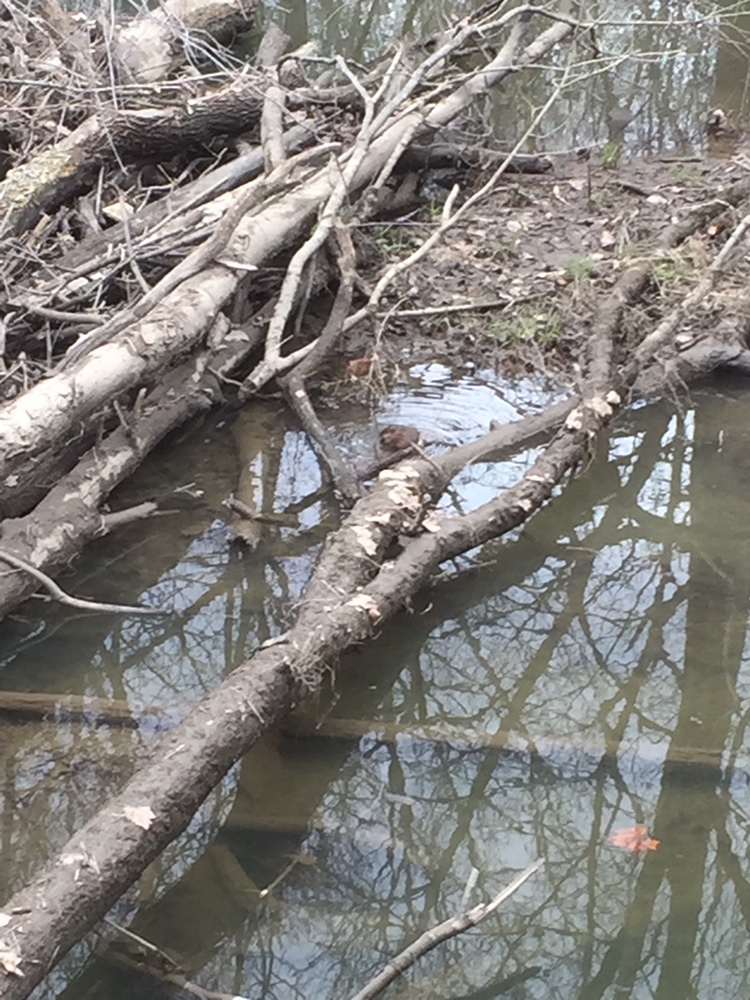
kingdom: Animalia
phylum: Chordata
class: Mammalia
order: Rodentia
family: Cricetidae
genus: Ondatra
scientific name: Ondatra zibethicus
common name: Muskrat
